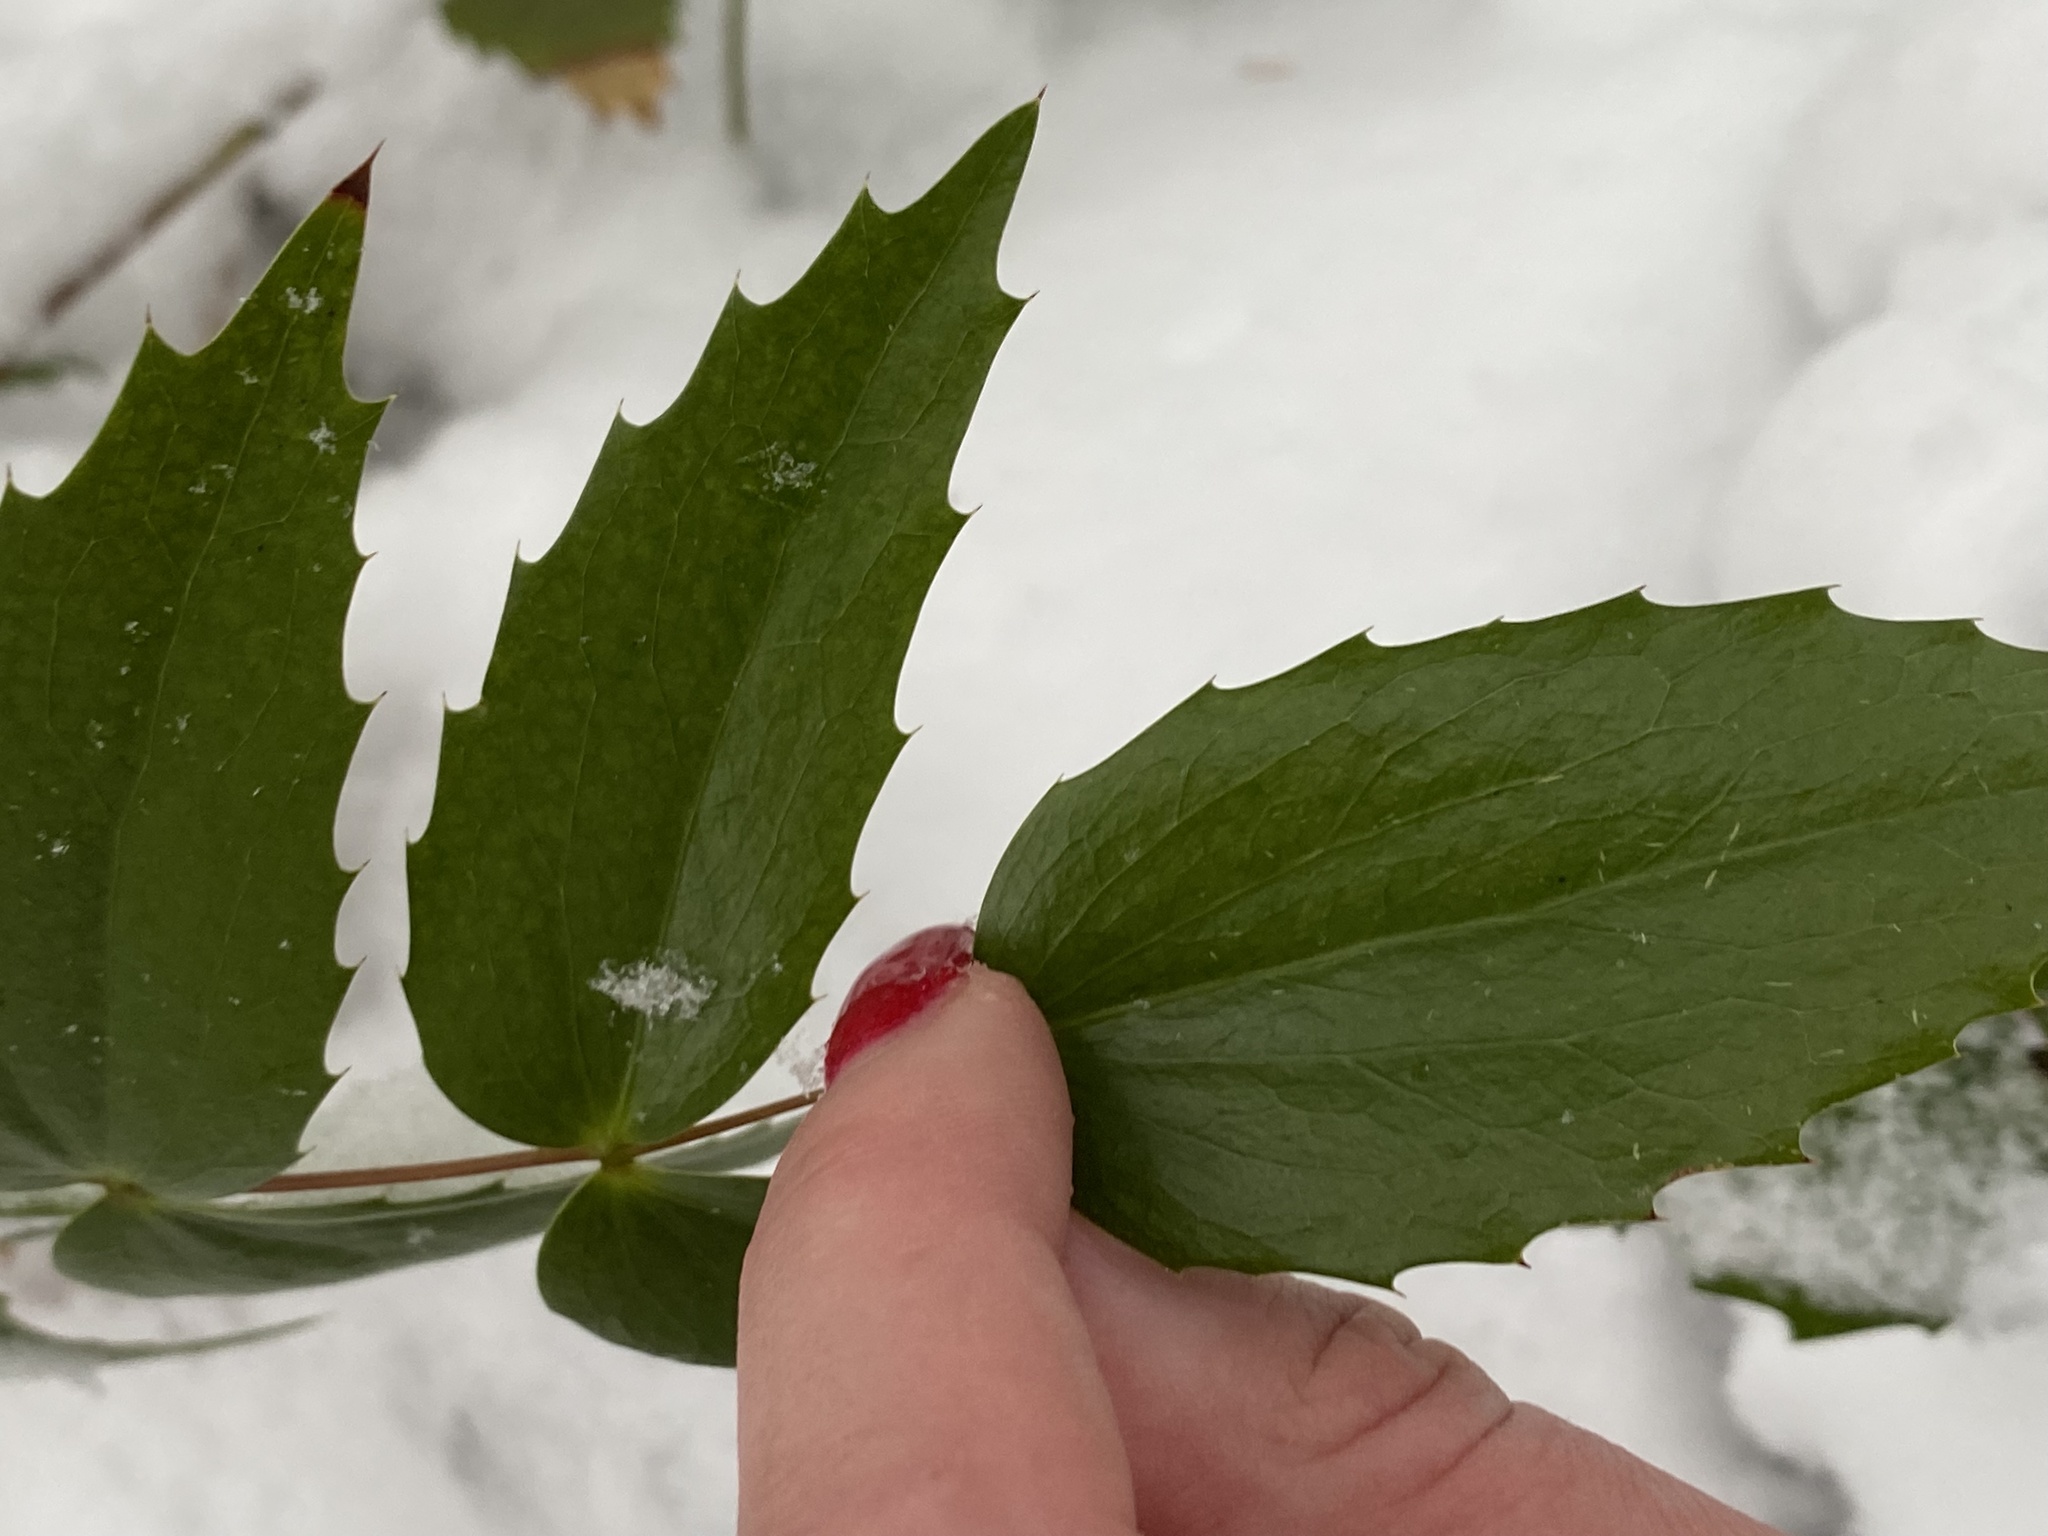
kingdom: Plantae
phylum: Tracheophyta
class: Magnoliopsida
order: Ranunculales
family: Berberidaceae
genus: Mahonia
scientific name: Mahonia nervosa
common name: Cascade oregon-grape
